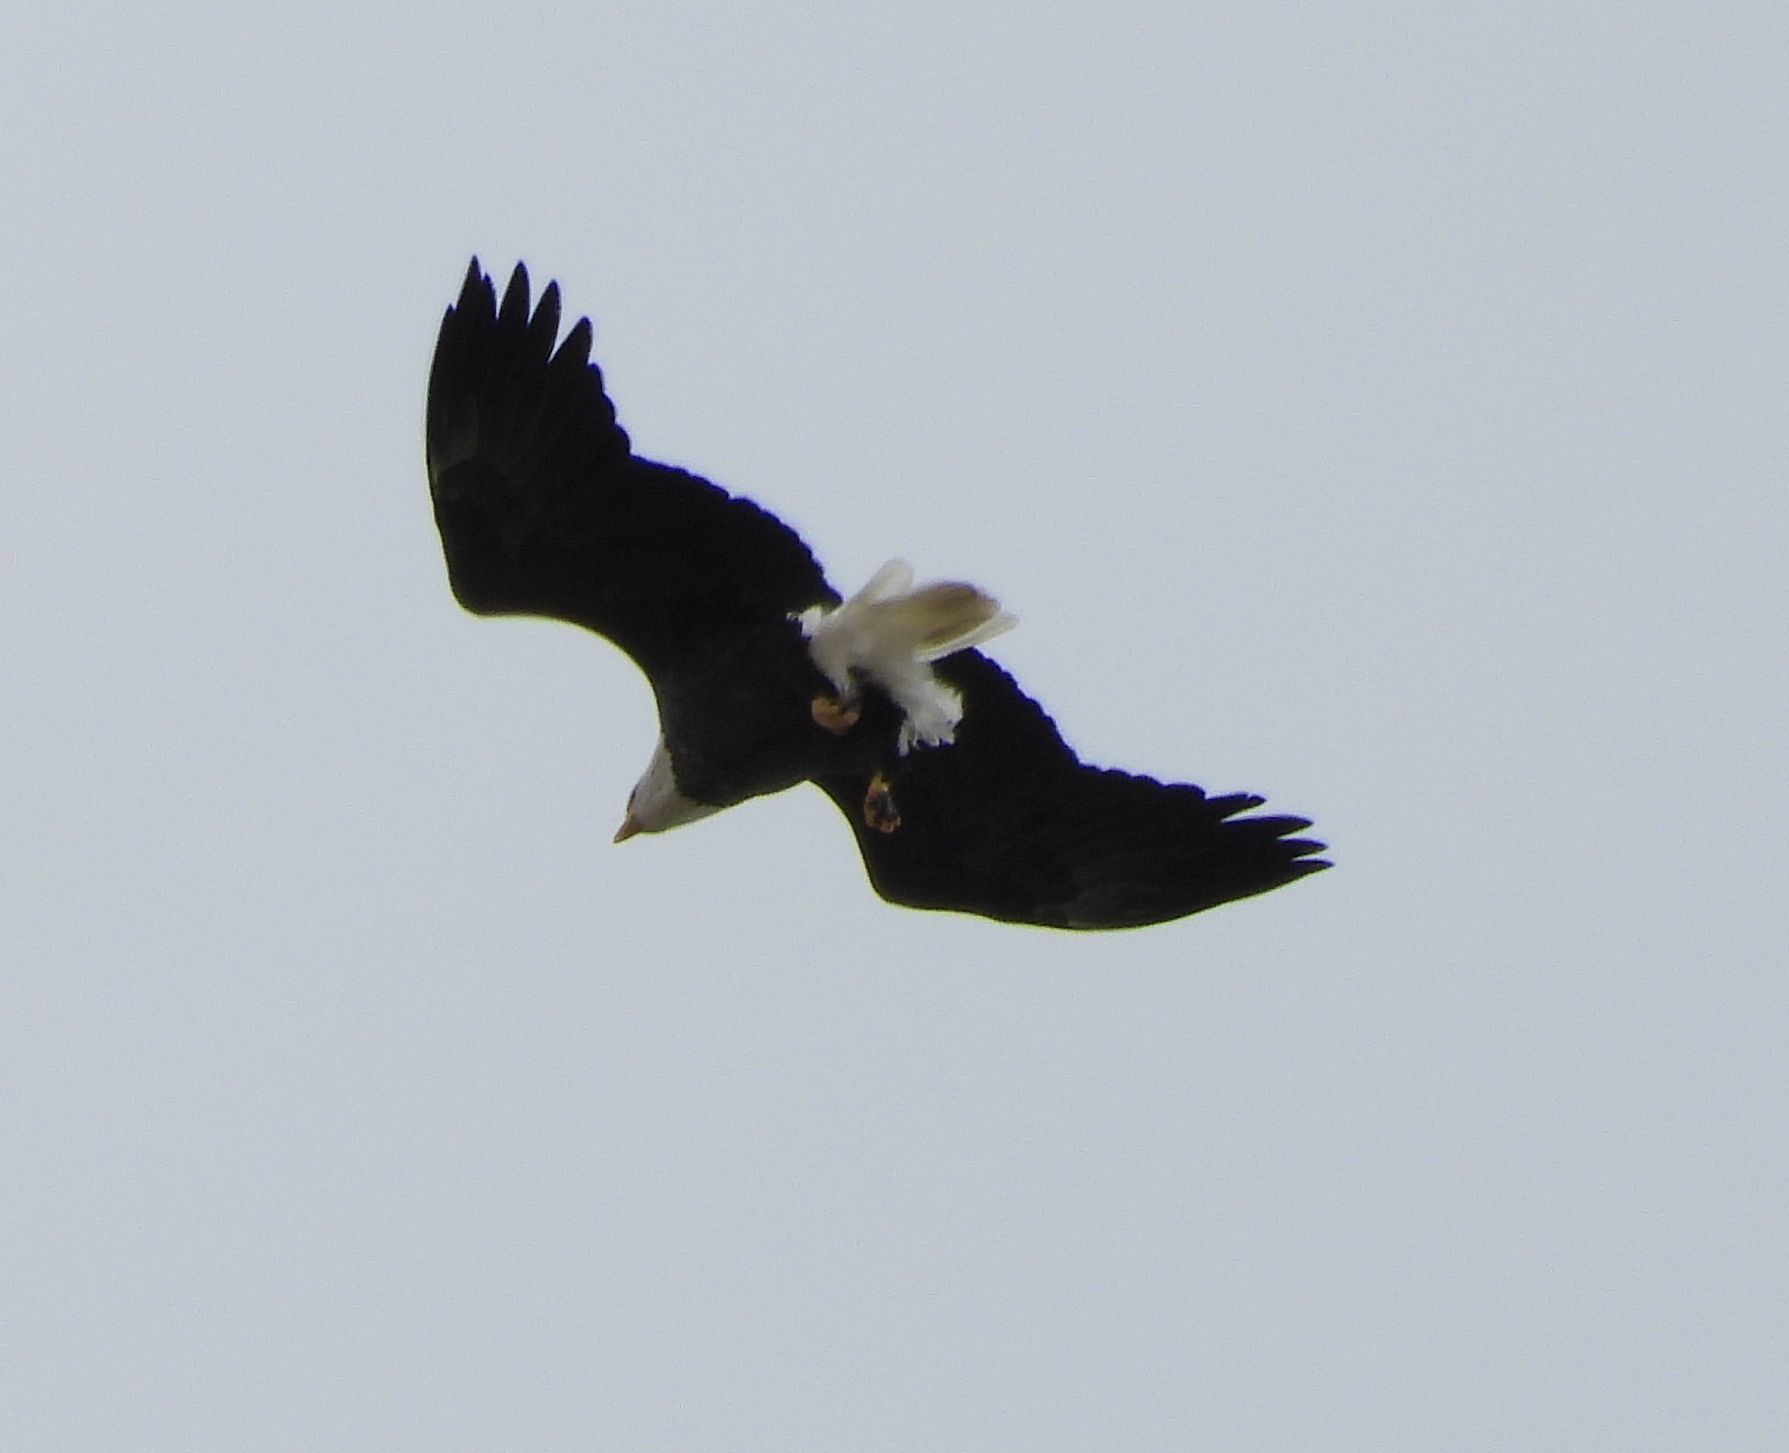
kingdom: Animalia
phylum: Chordata
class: Aves
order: Accipitriformes
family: Accipitridae
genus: Haliaeetus
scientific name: Haliaeetus leucocephalus
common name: Bald eagle
